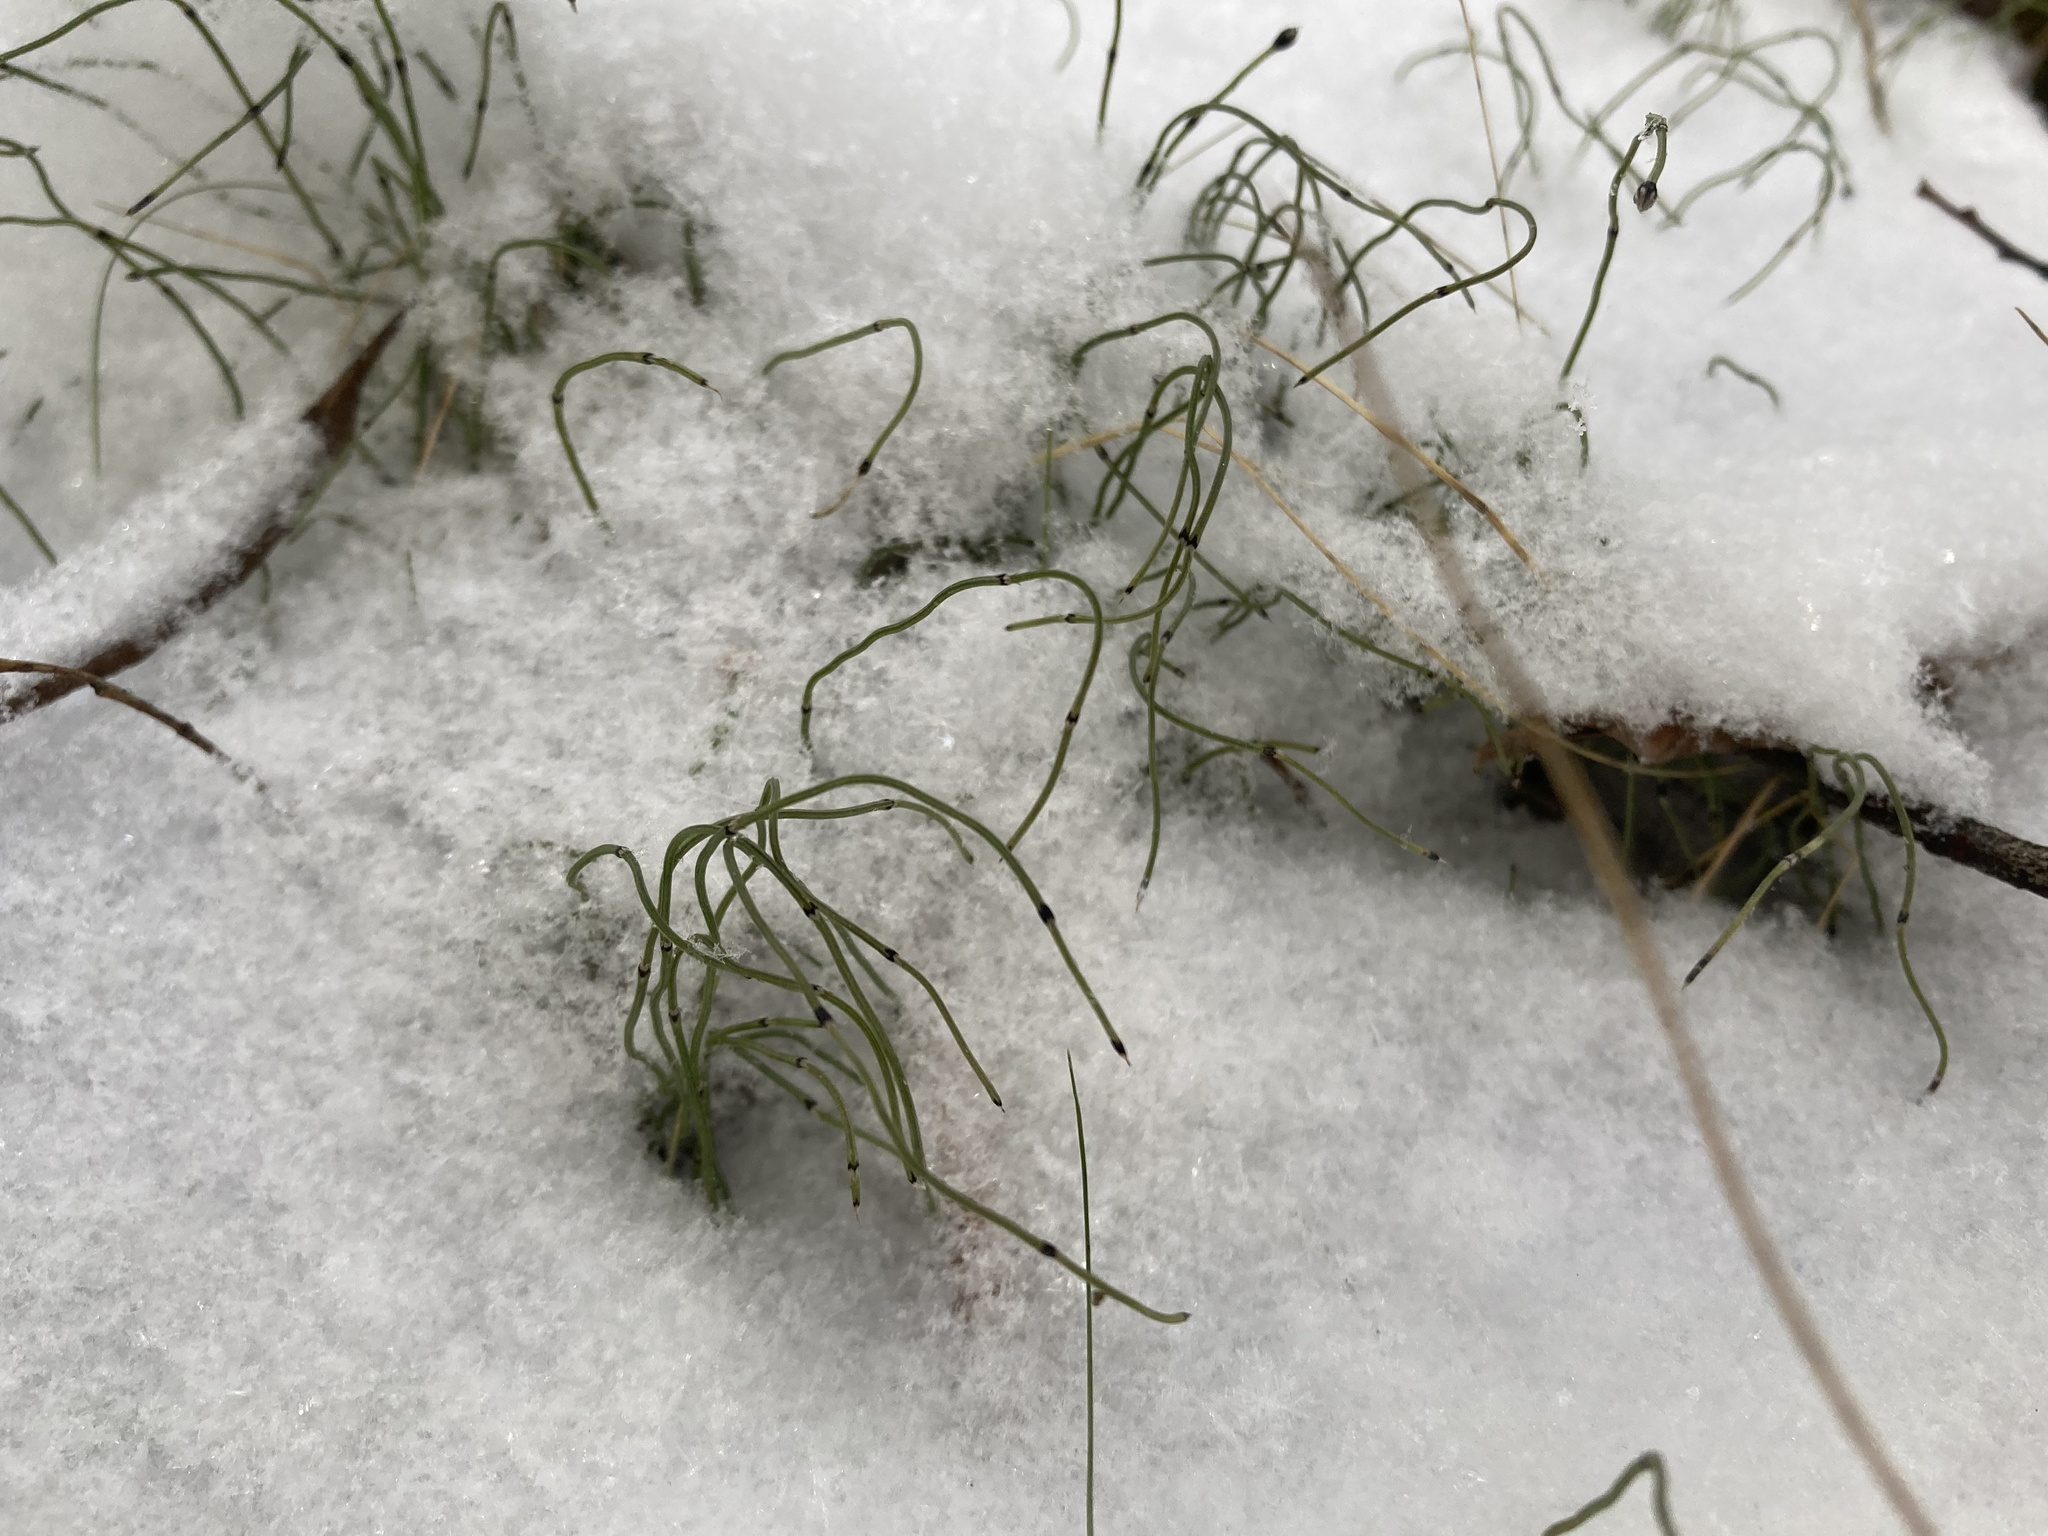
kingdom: Plantae
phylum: Tracheophyta
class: Polypodiopsida
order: Equisetales
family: Equisetaceae
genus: Equisetum
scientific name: Equisetum scirpoides
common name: Delicate horsetail
